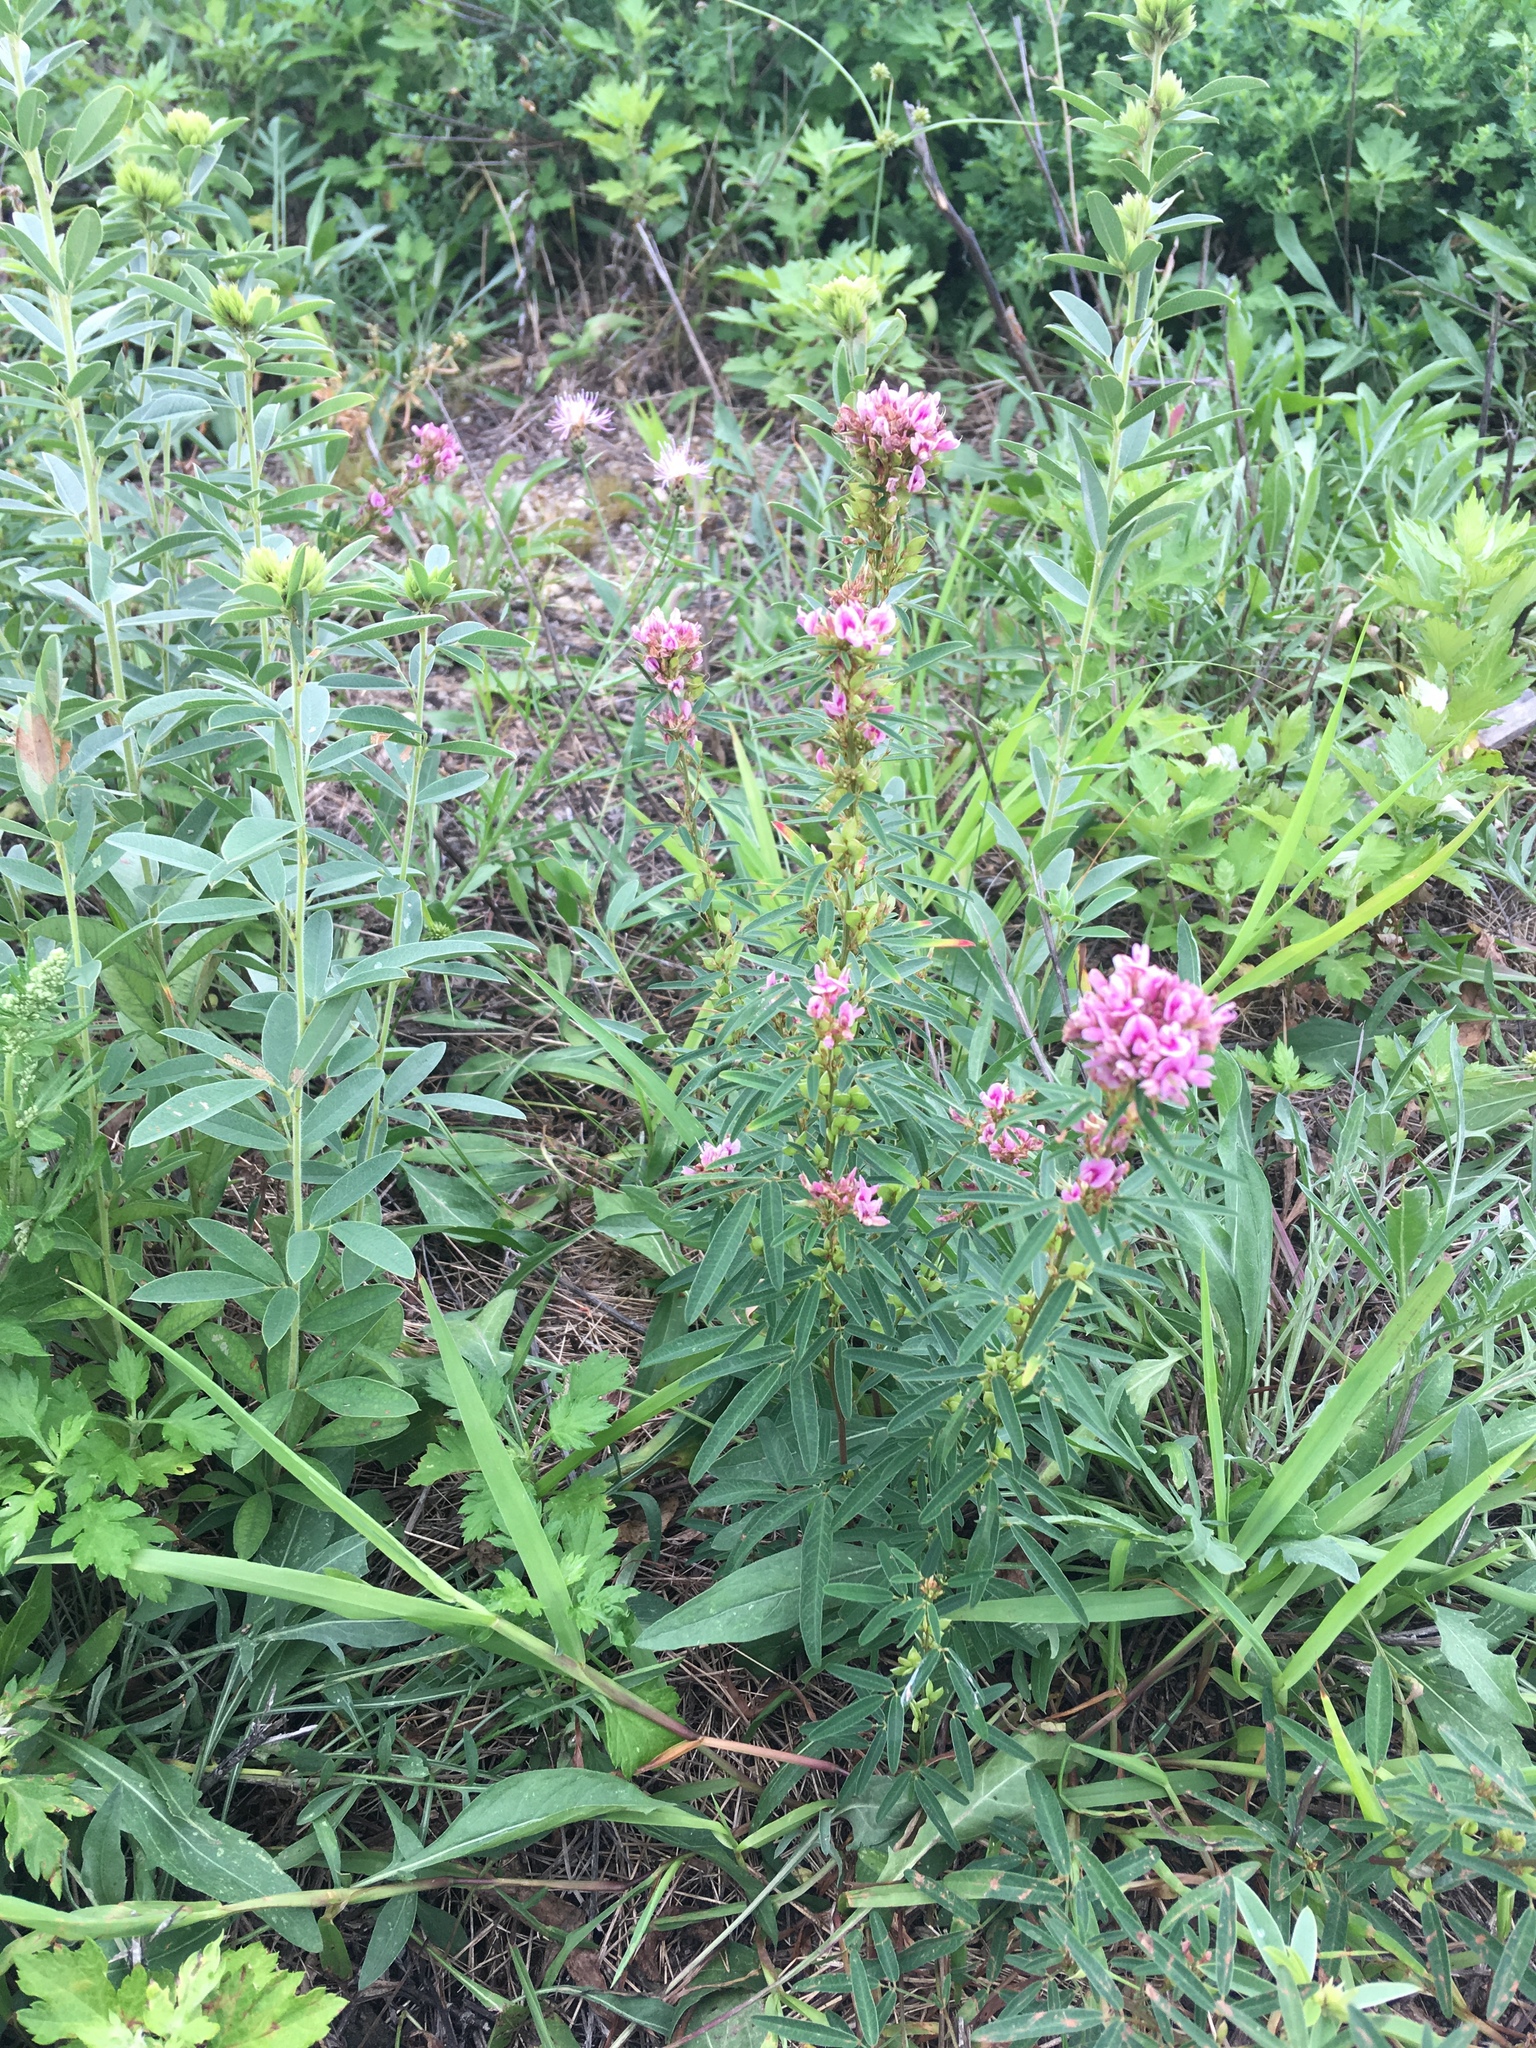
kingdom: Plantae
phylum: Tracheophyta
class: Magnoliopsida
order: Fabales
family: Fabaceae
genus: Lespedeza
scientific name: Lespedeza virginica
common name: Slender bush-clover
